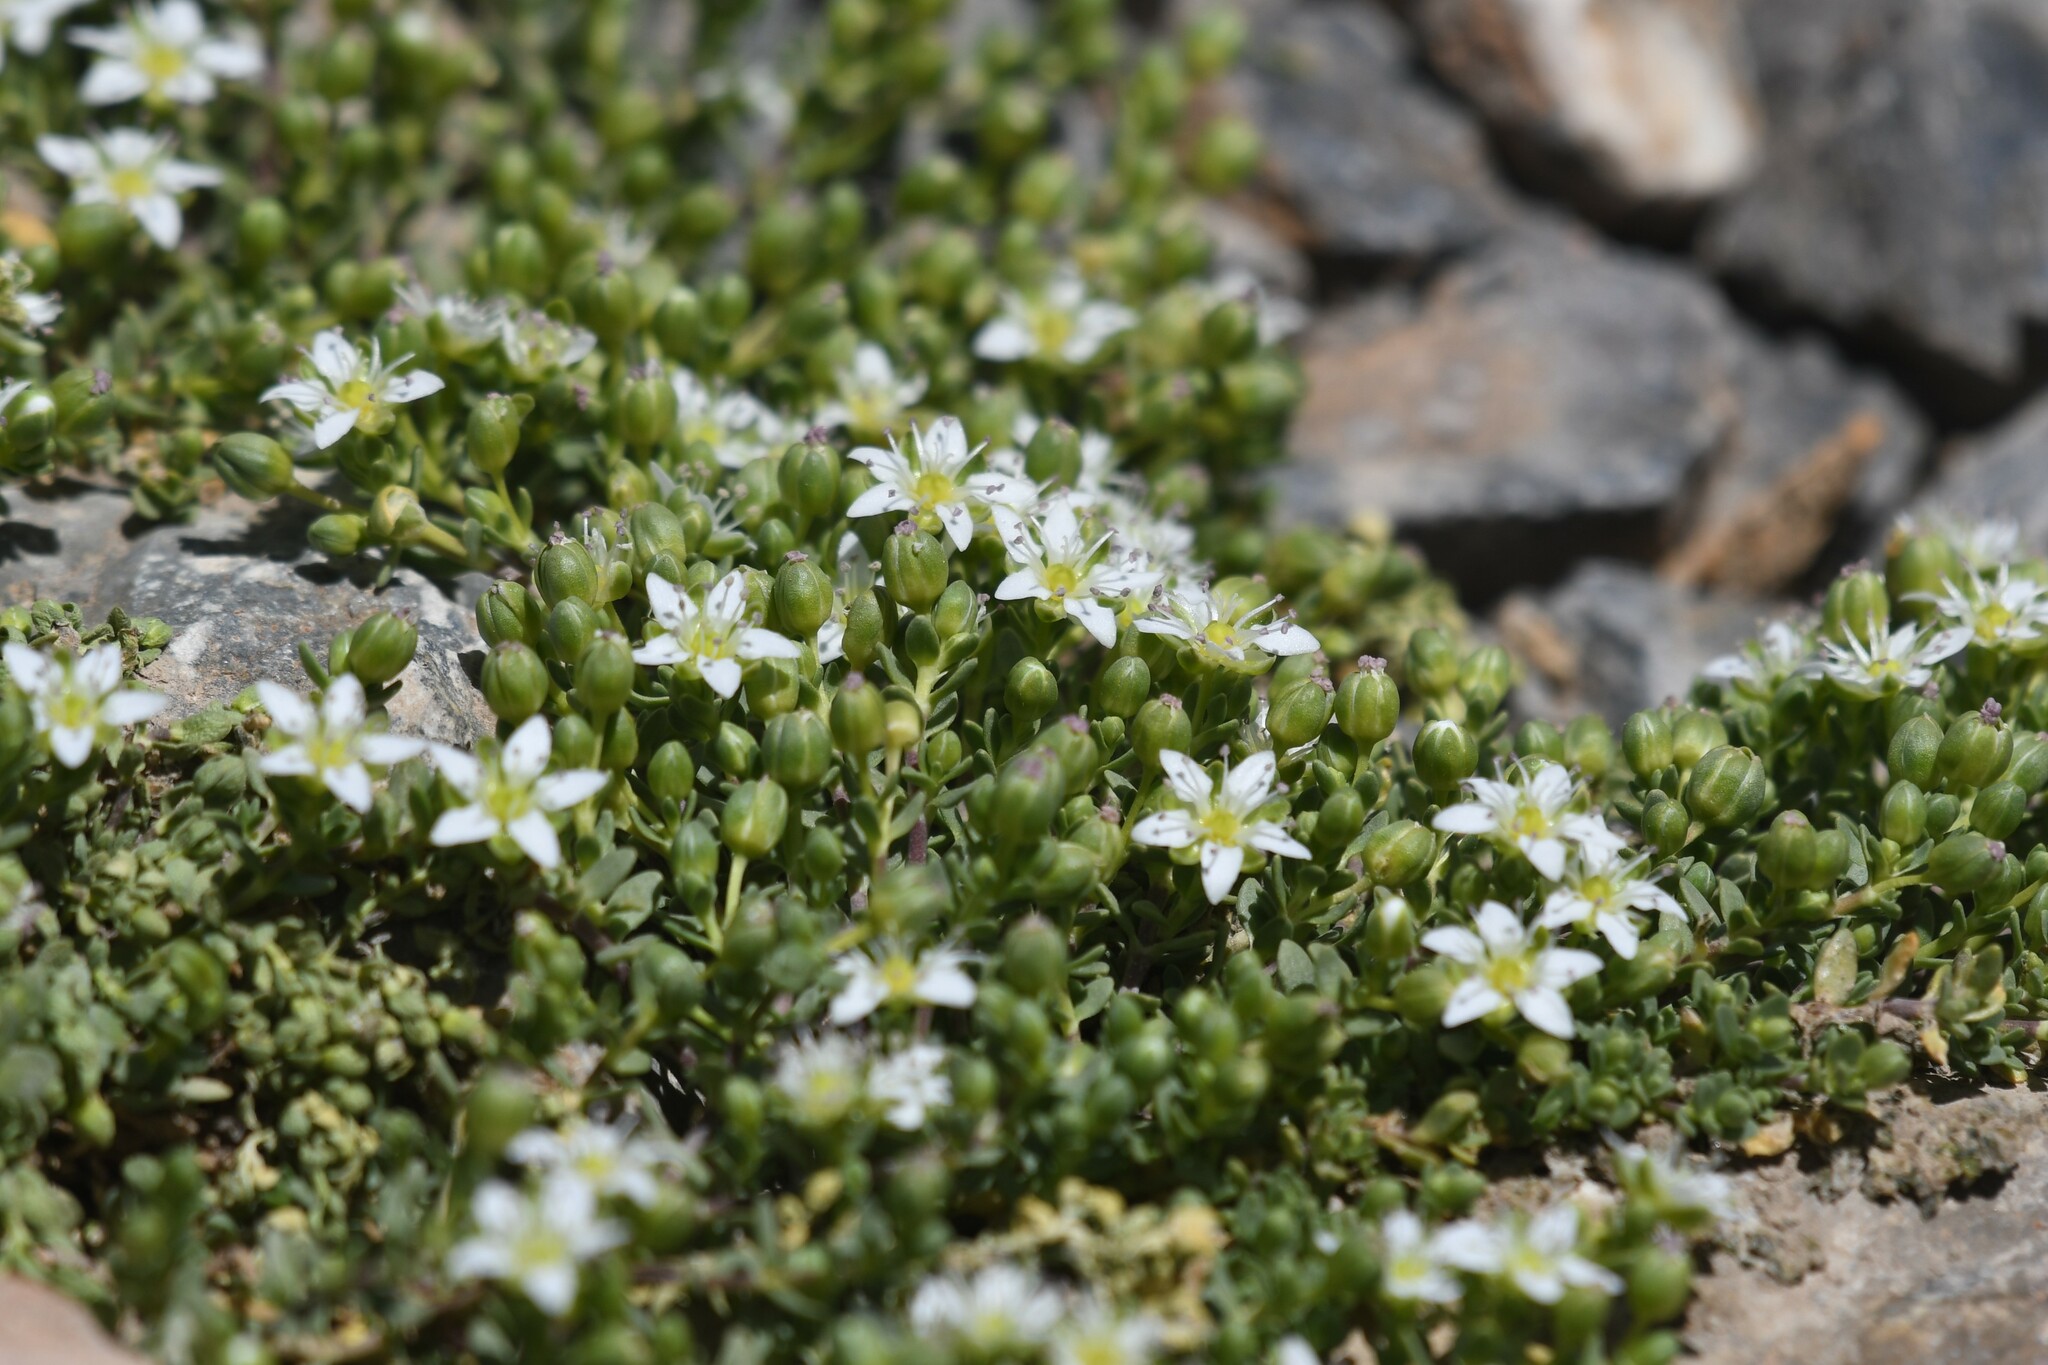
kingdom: Plantae
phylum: Tracheophyta
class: Magnoliopsida
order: Caryophyllales
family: Caryophyllaceae
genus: Arenaria
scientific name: Arenaria serpens
